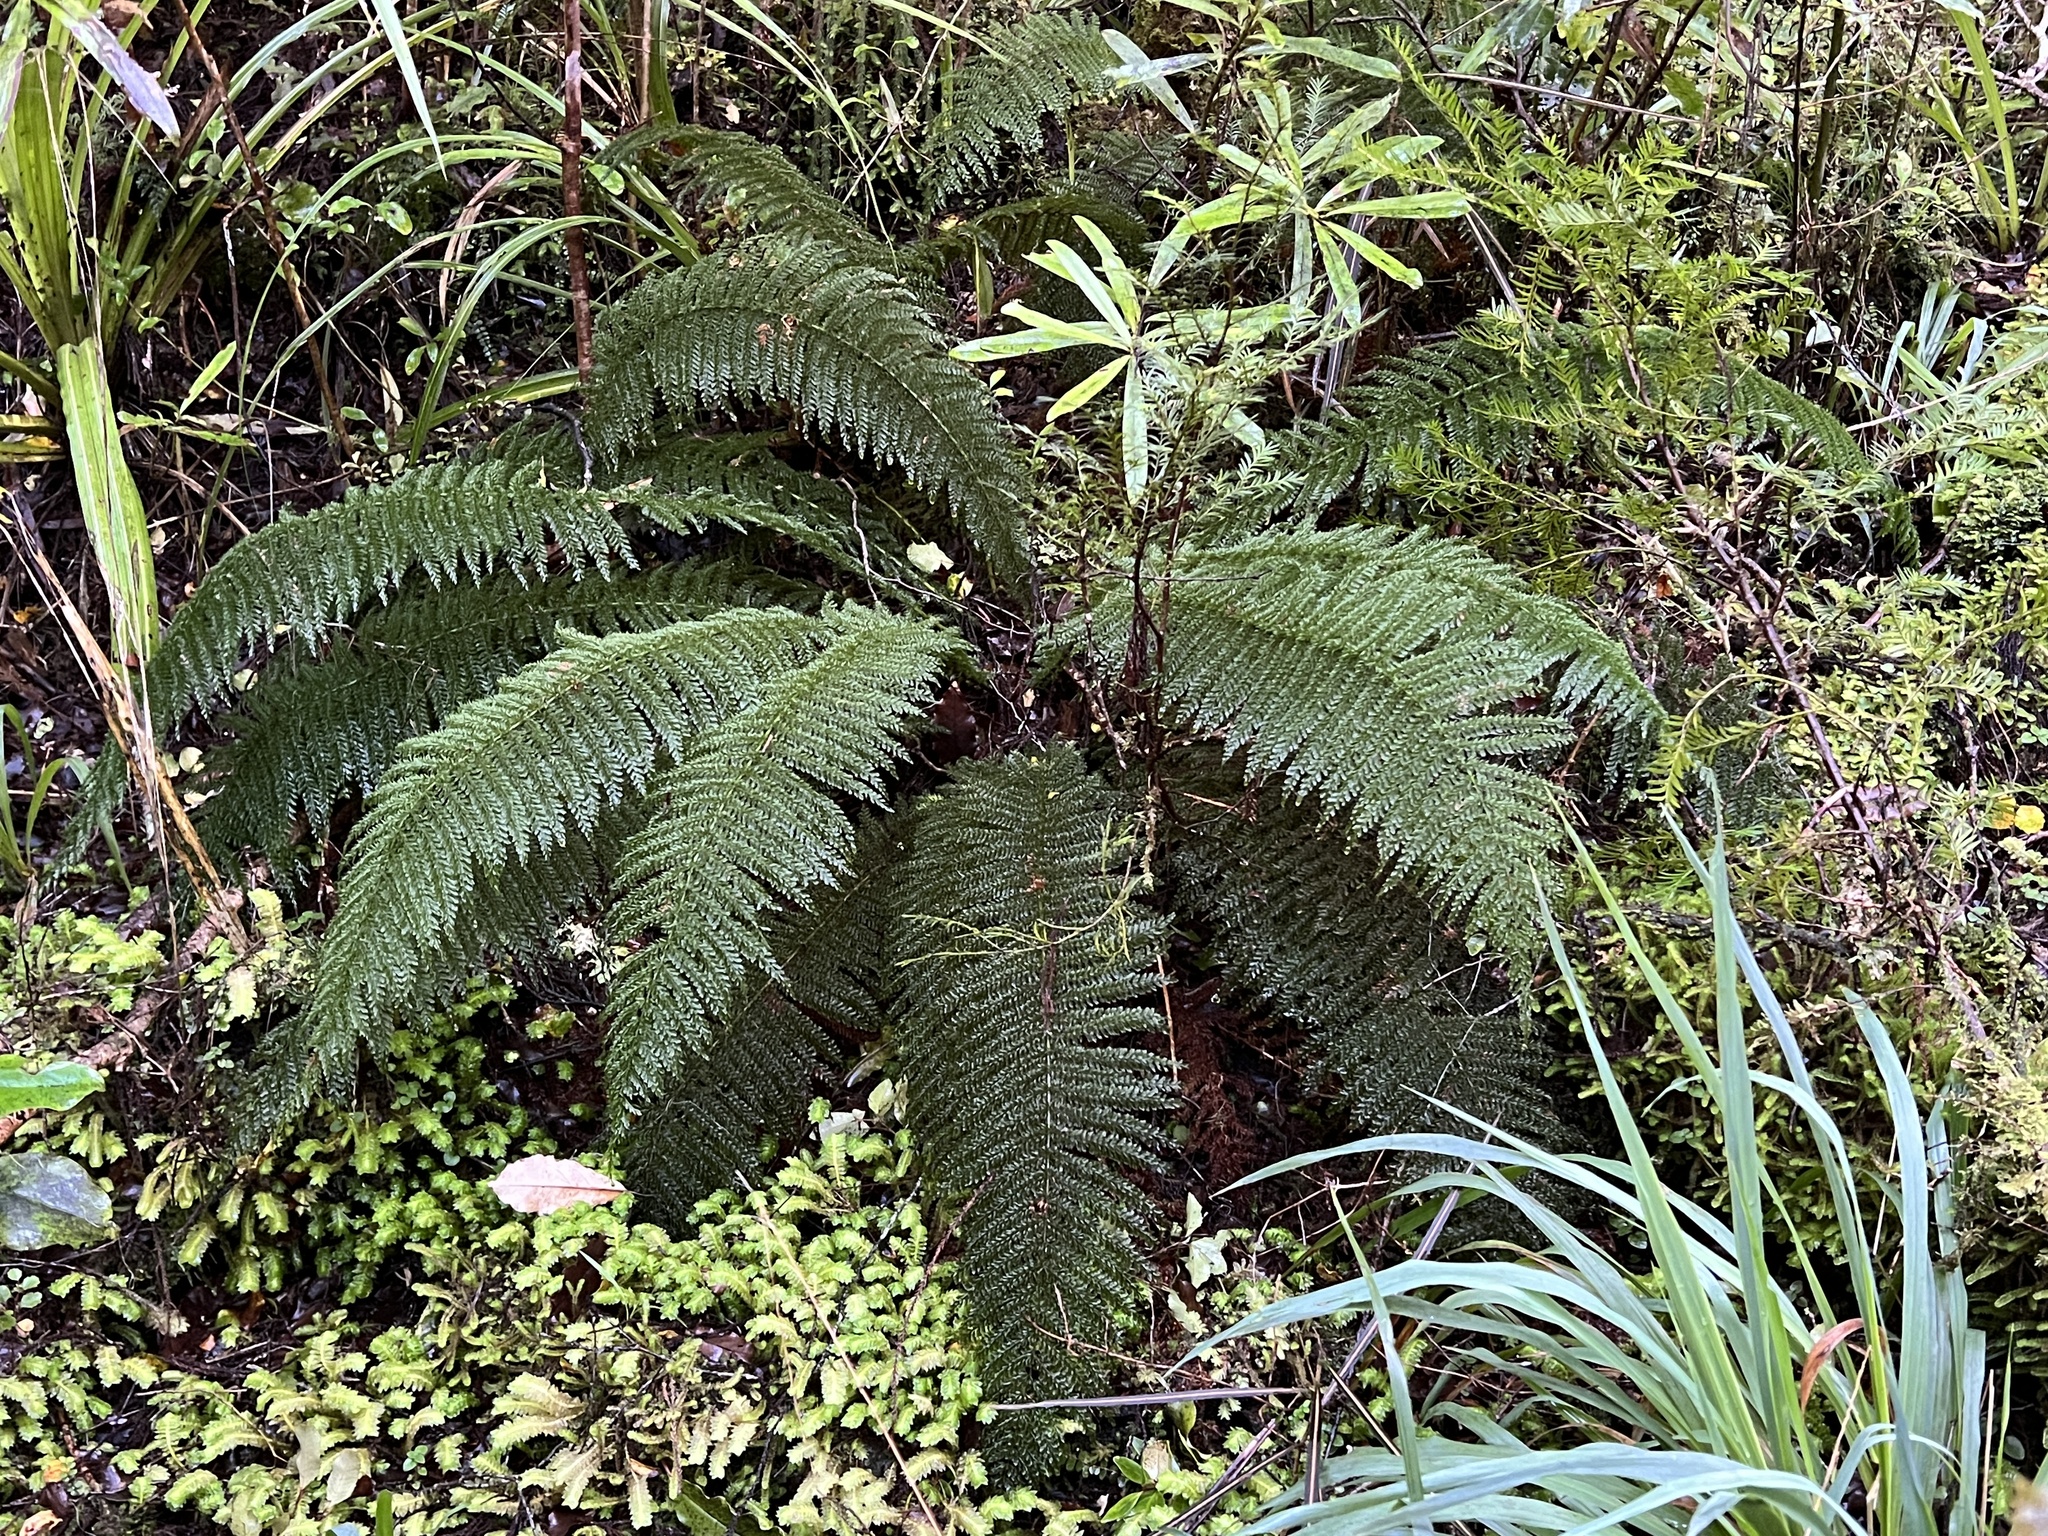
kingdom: Plantae
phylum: Tracheophyta
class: Polypodiopsida
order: Osmundales
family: Osmundaceae
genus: Leptopteris
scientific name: Leptopteris superba
